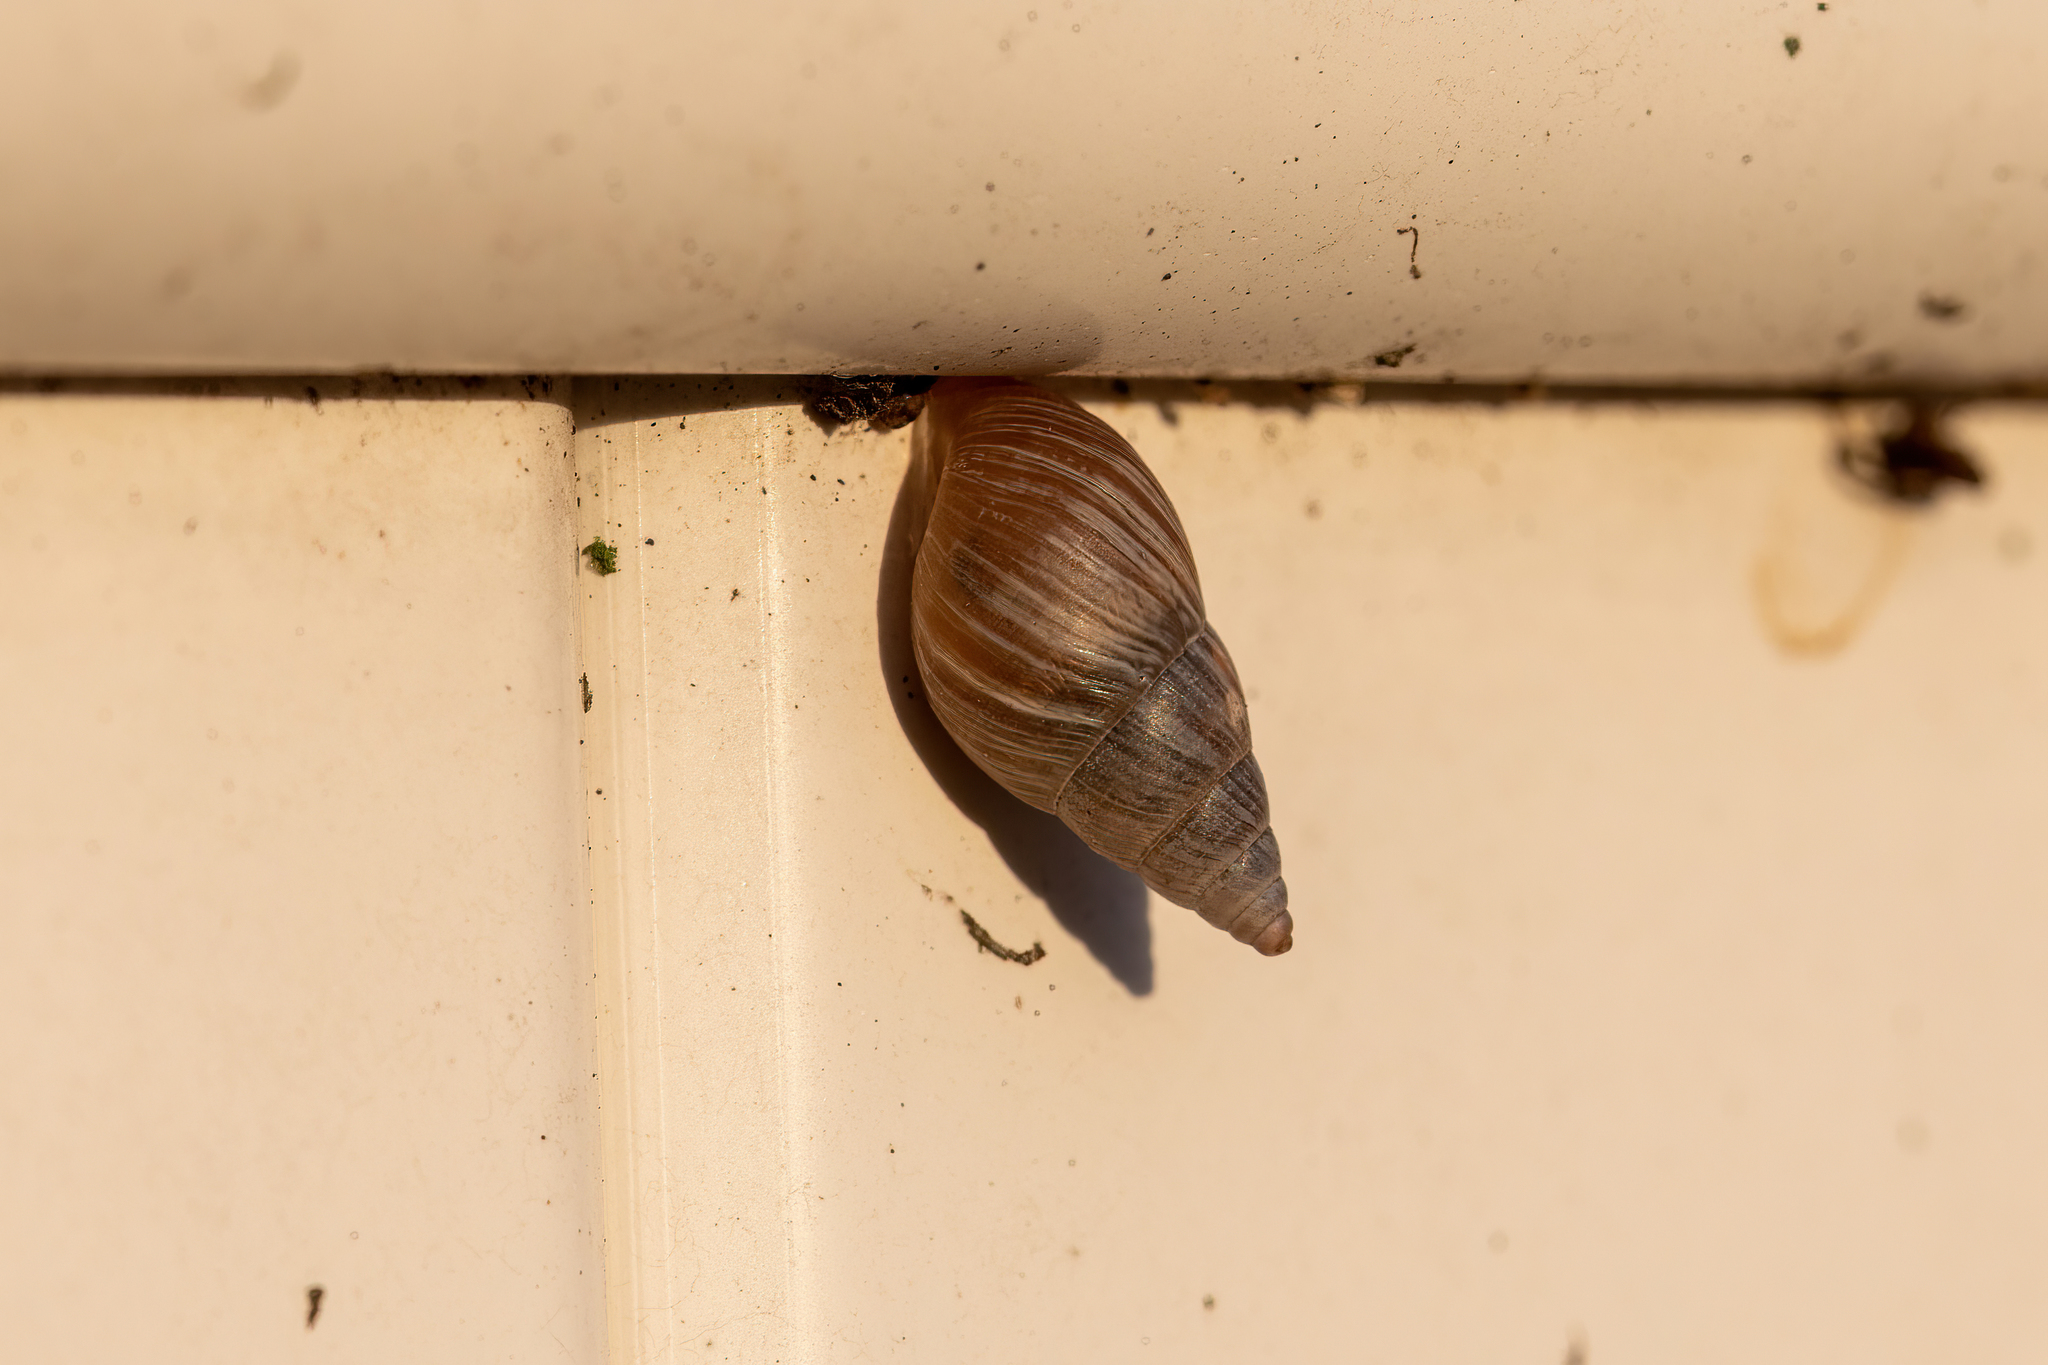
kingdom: Animalia
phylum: Mollusca
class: Gastropoda
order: Stylommatophora
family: Bulimulidae
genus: Bulimulus
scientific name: Bulimulus bonariensis
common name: Snail
